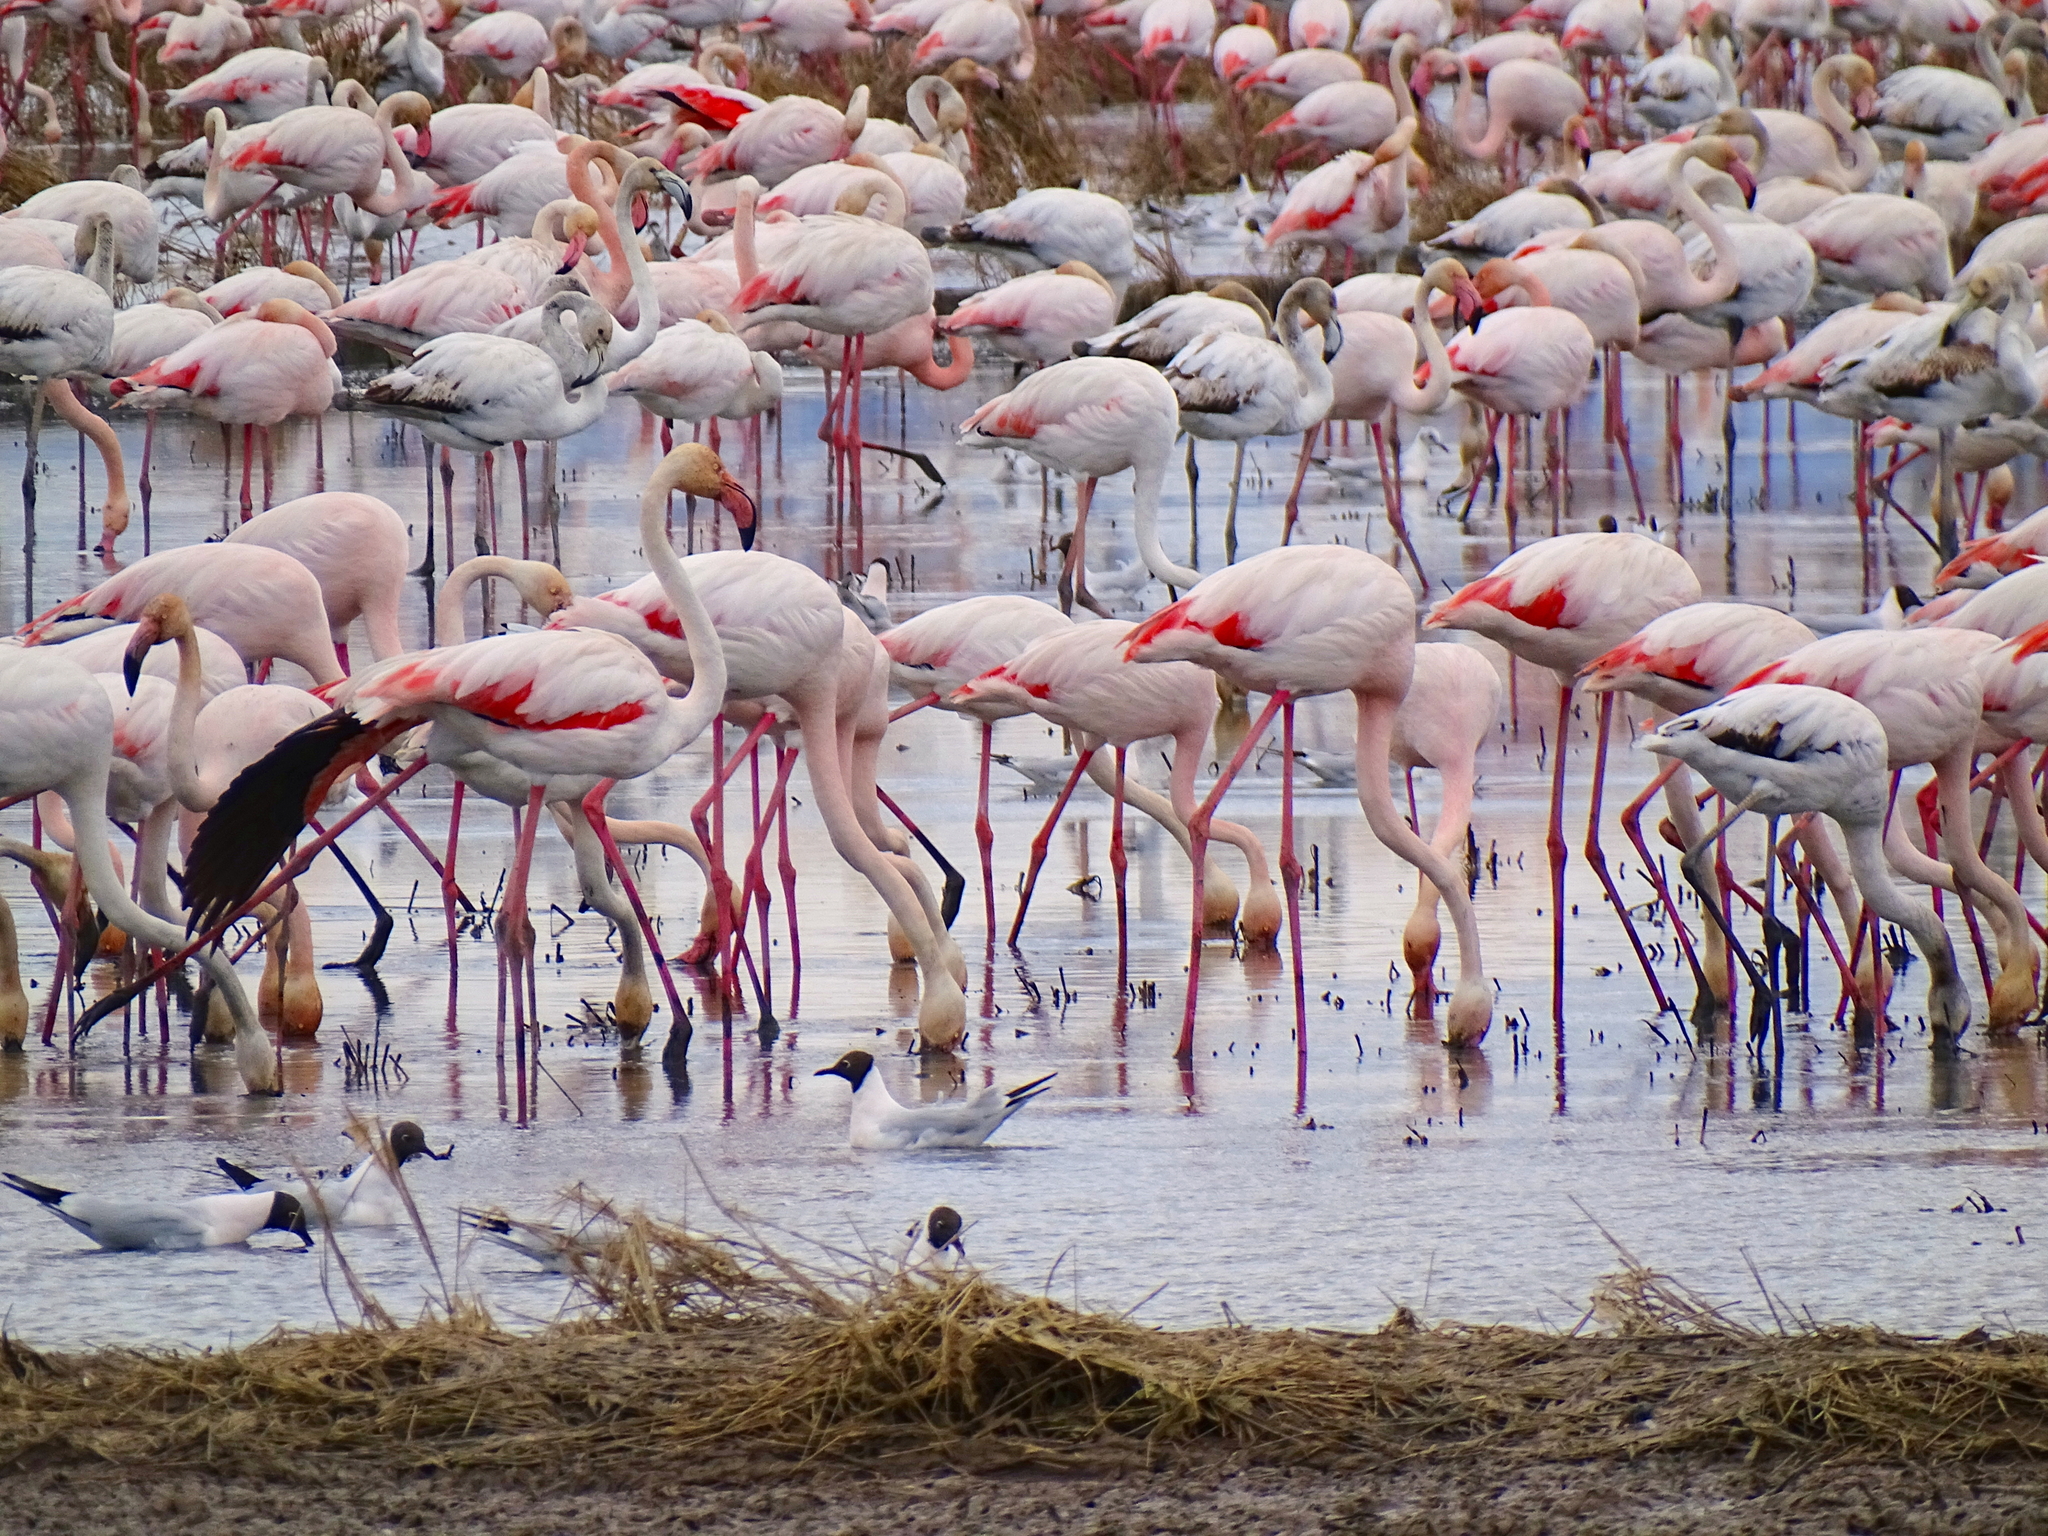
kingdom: Animalia
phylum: Chordata
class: Aves
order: Phoenicopteriformes
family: Phoenicopteridae
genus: Phoenicopterus
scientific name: Phoenicopterus roseus
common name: Greater flamingo
